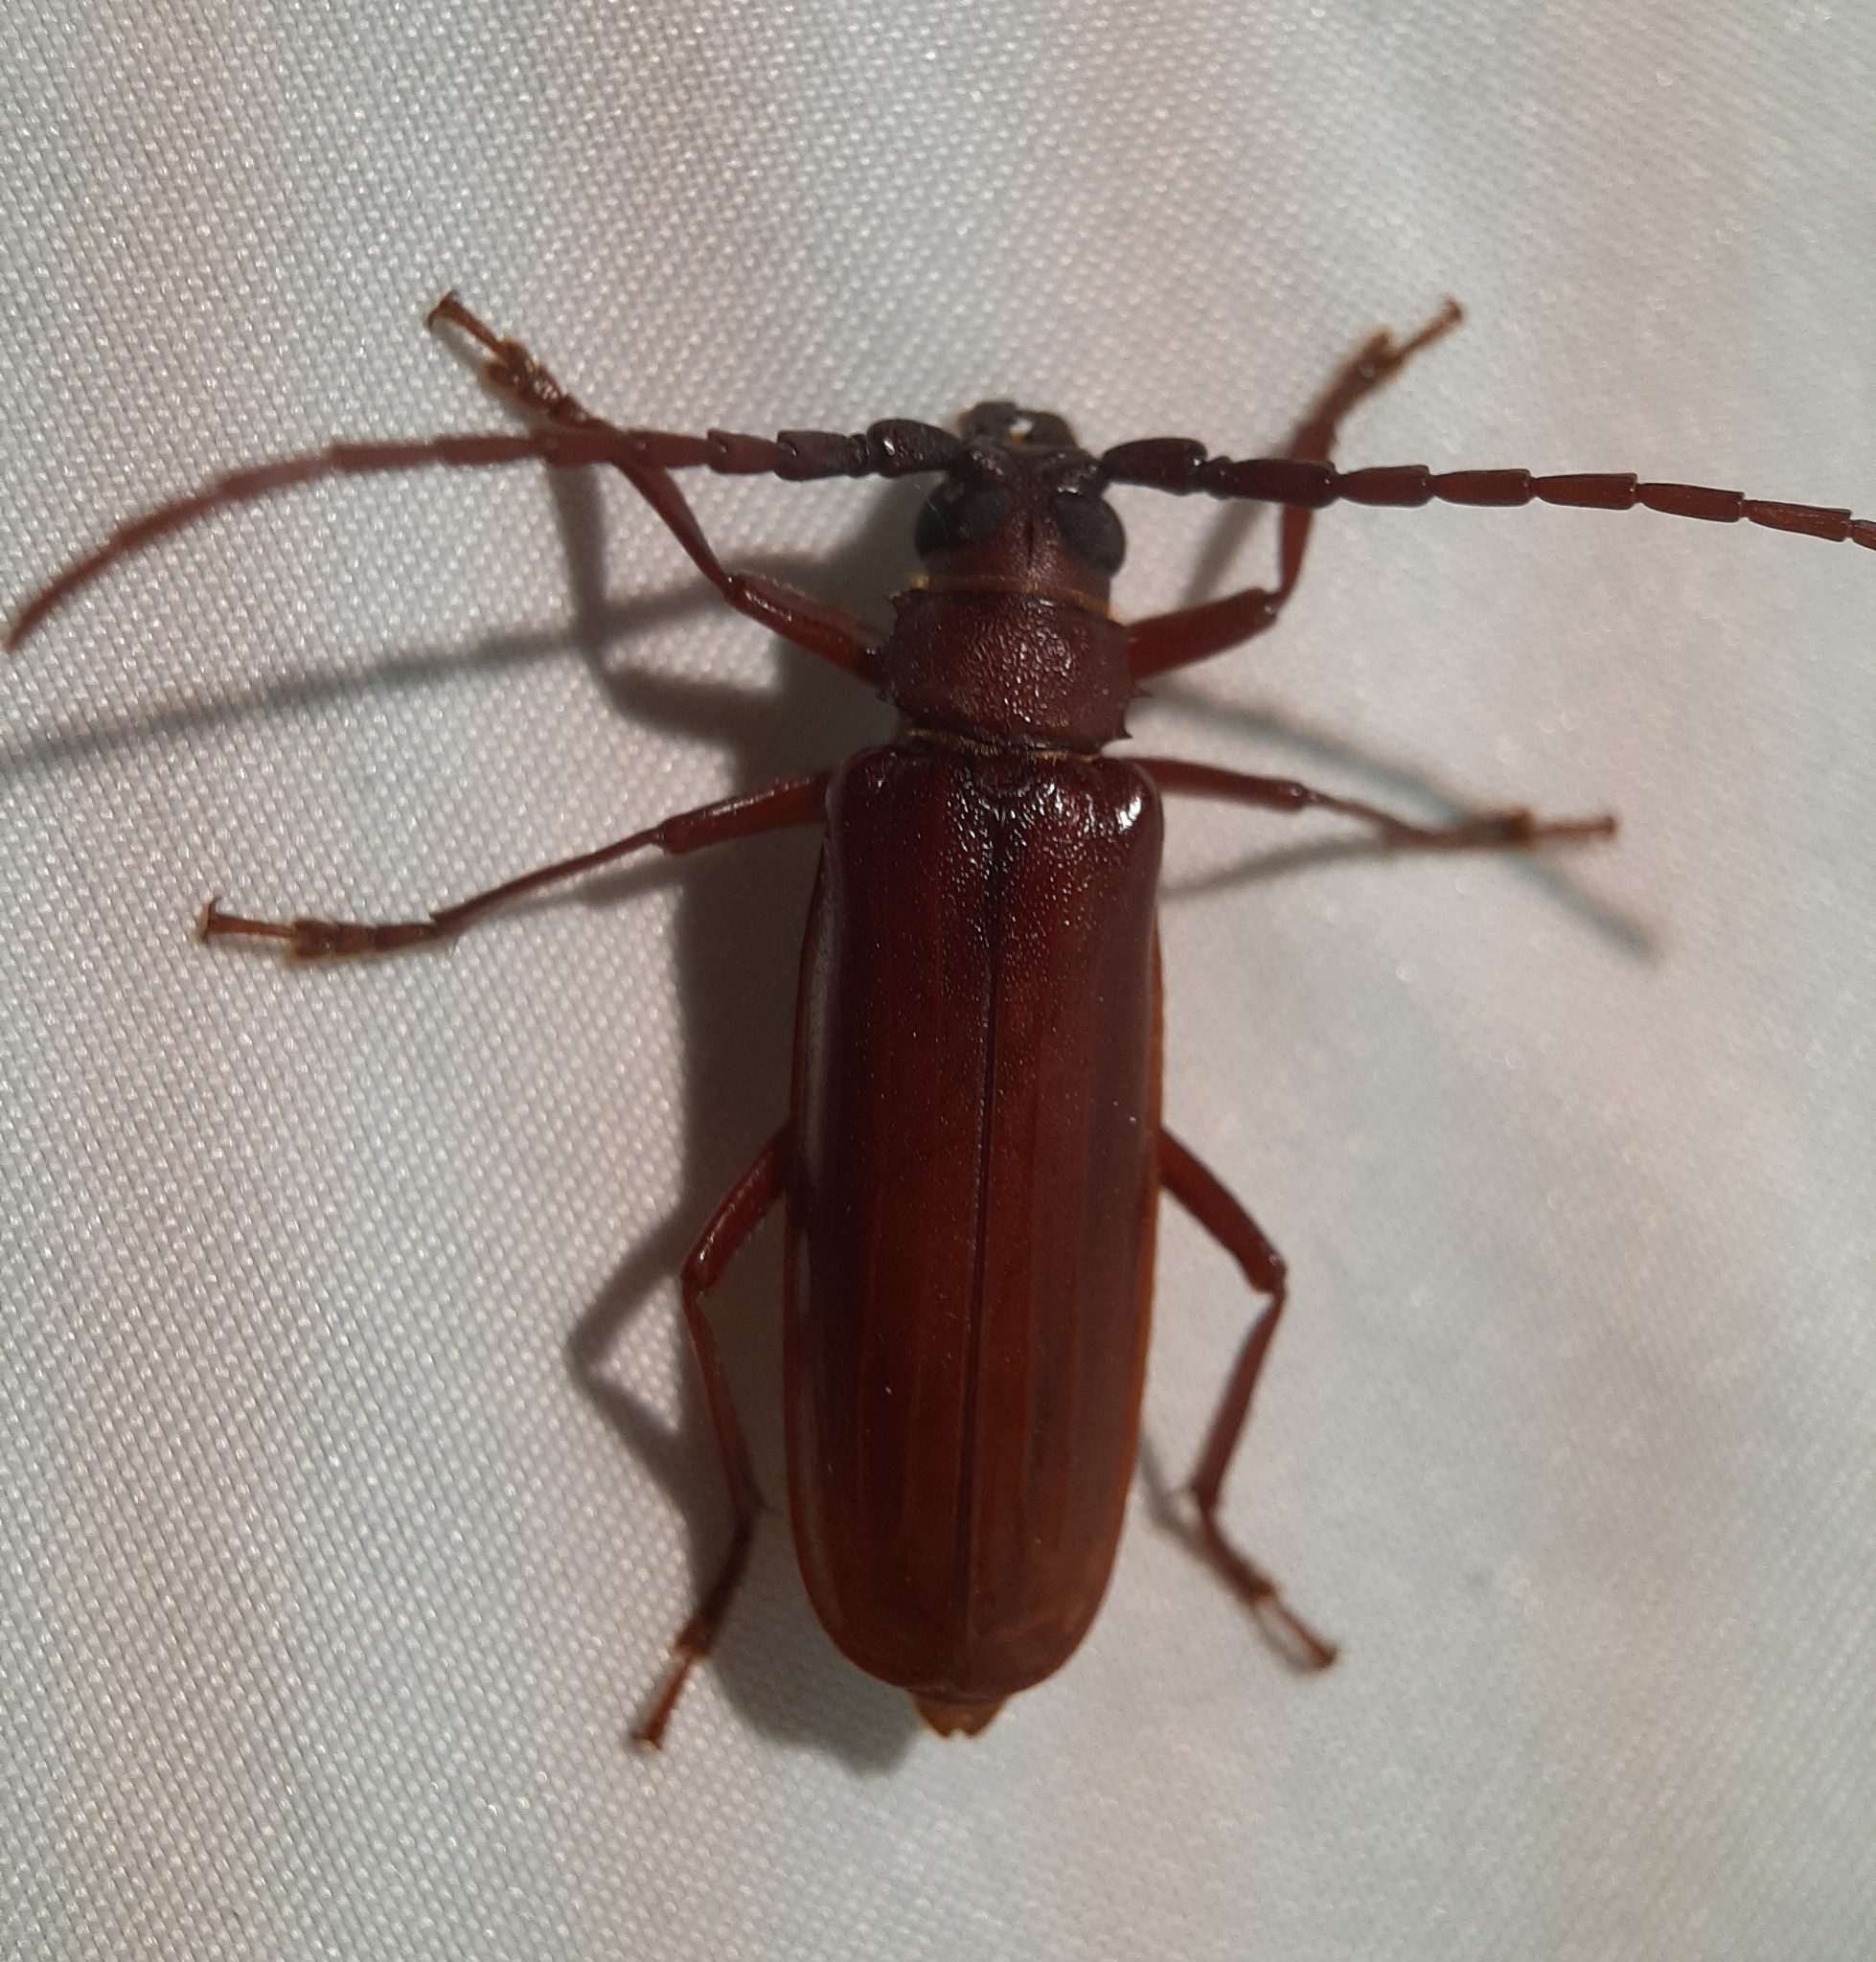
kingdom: Animalia
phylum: Arthropoda
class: Insecta
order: Coleoptera
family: Cerambycidae
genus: Orthosoma
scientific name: Orthosoma brunneum
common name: Brown prionid beetle
